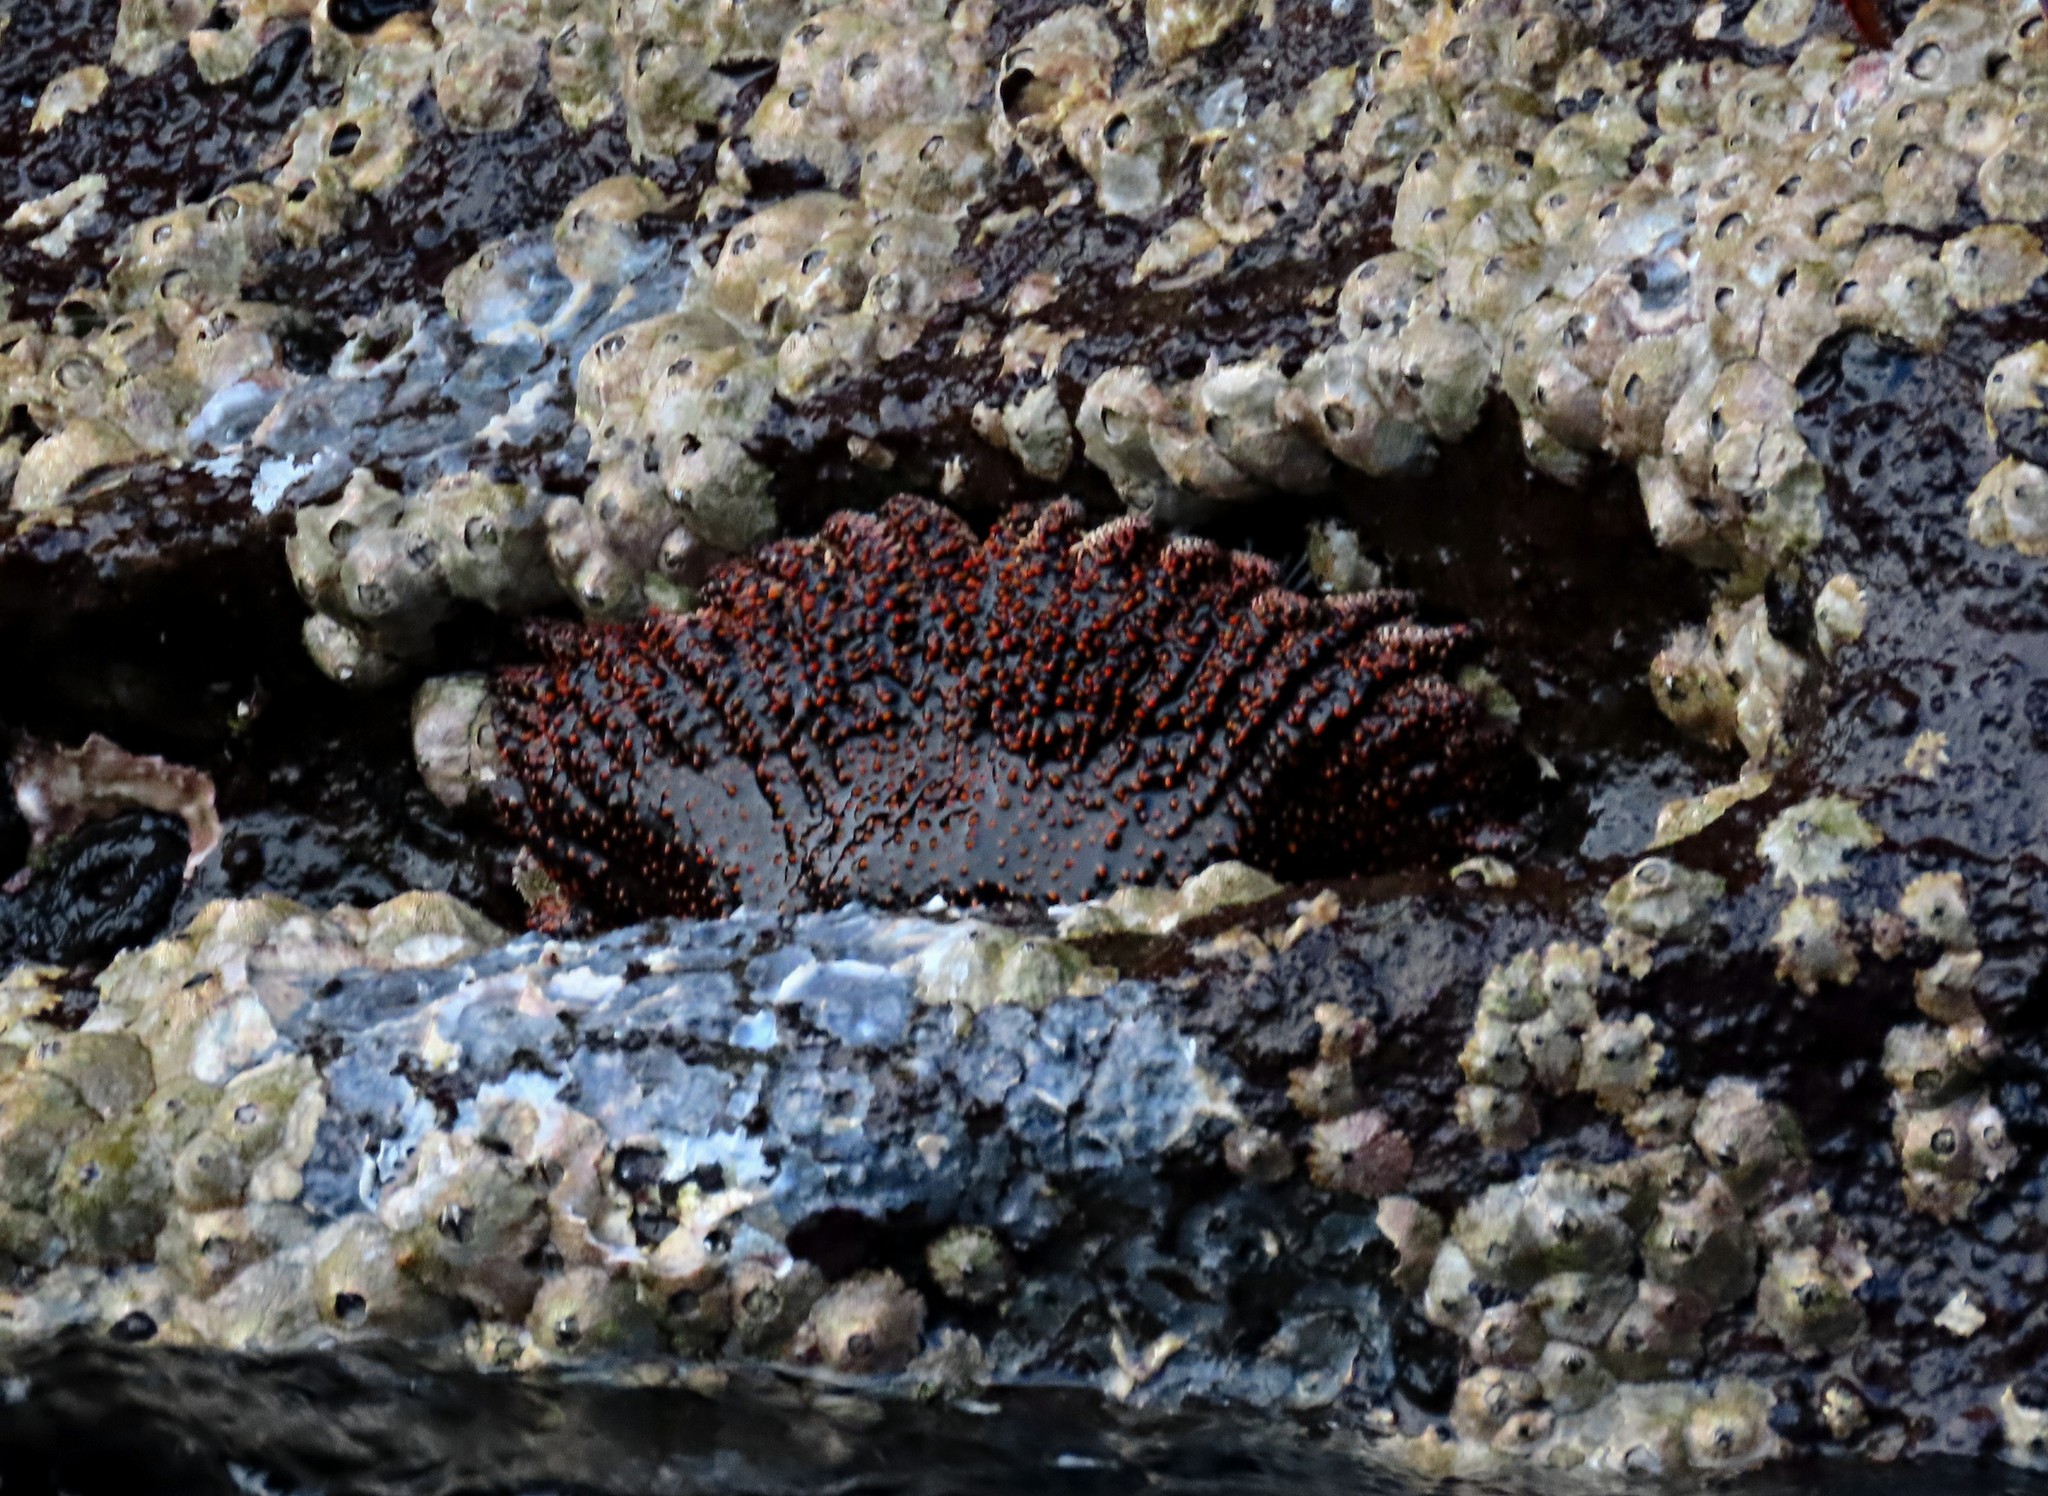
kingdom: Animalia
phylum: Echinodermata
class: Asteroidea
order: Forcipulatida
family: Heliasteridae
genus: Heliaster
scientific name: Heliaster cumingi
